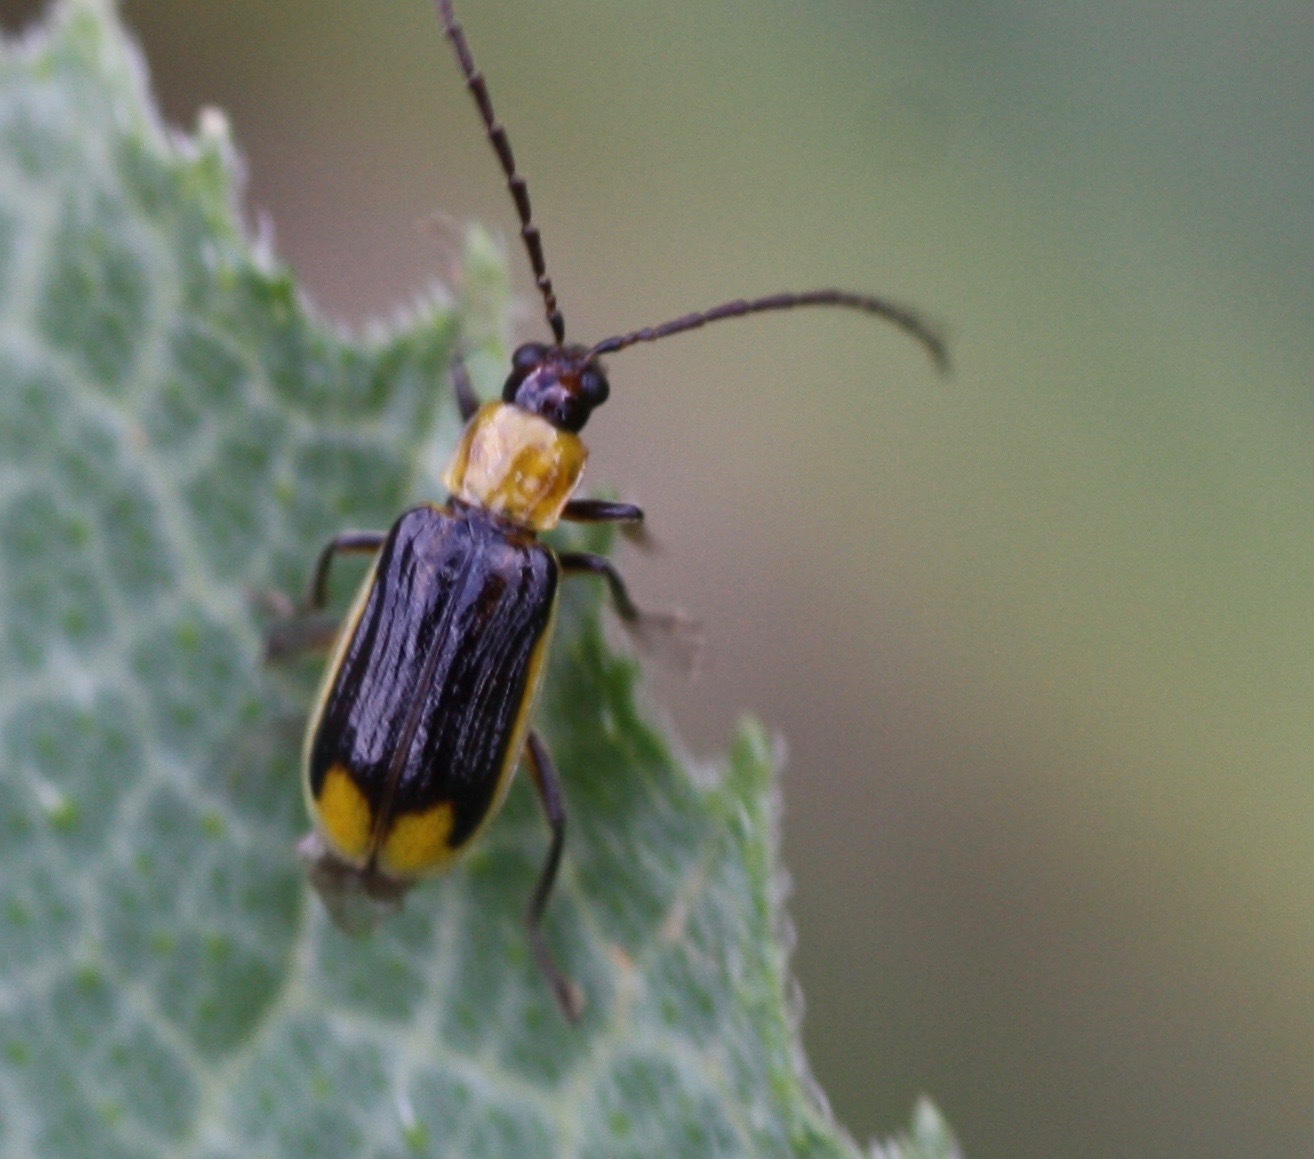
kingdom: Animalia
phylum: Arthropoda
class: Insecta
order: Coleoptera
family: Chrysomelidae
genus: Diabrotica
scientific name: Diabrotica virgifera
